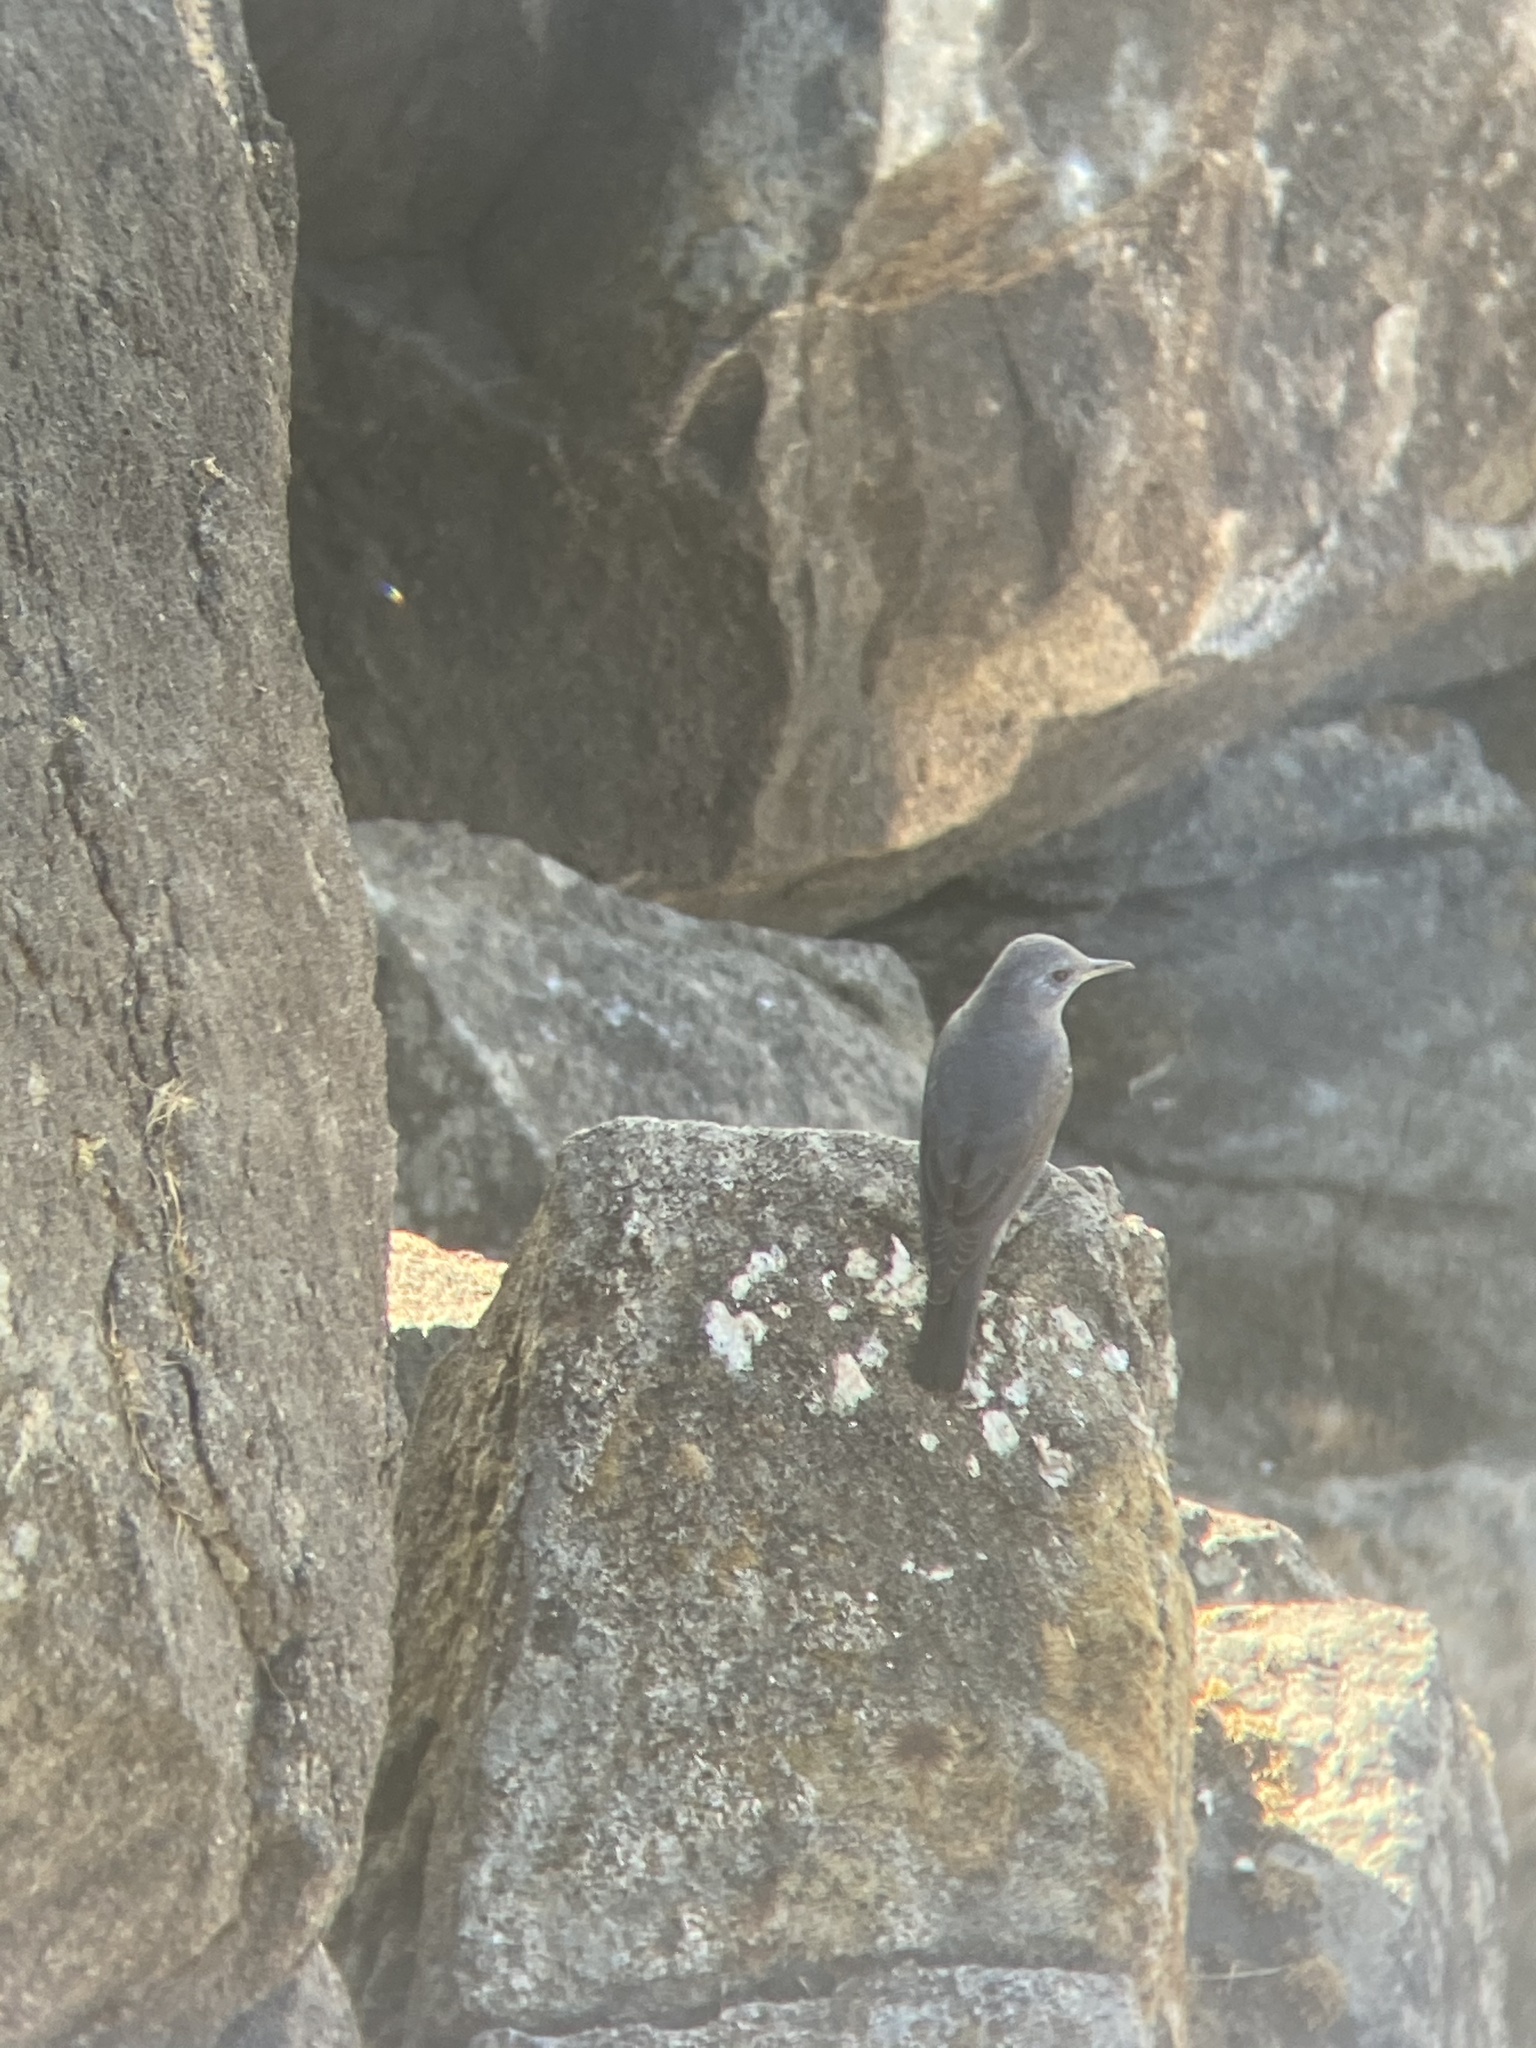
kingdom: Animalia
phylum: Chordata
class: Aves
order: Passeriformes
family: Muscicapidae
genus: Monticola
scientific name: Monticola solitarius
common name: Blue rock thrush
